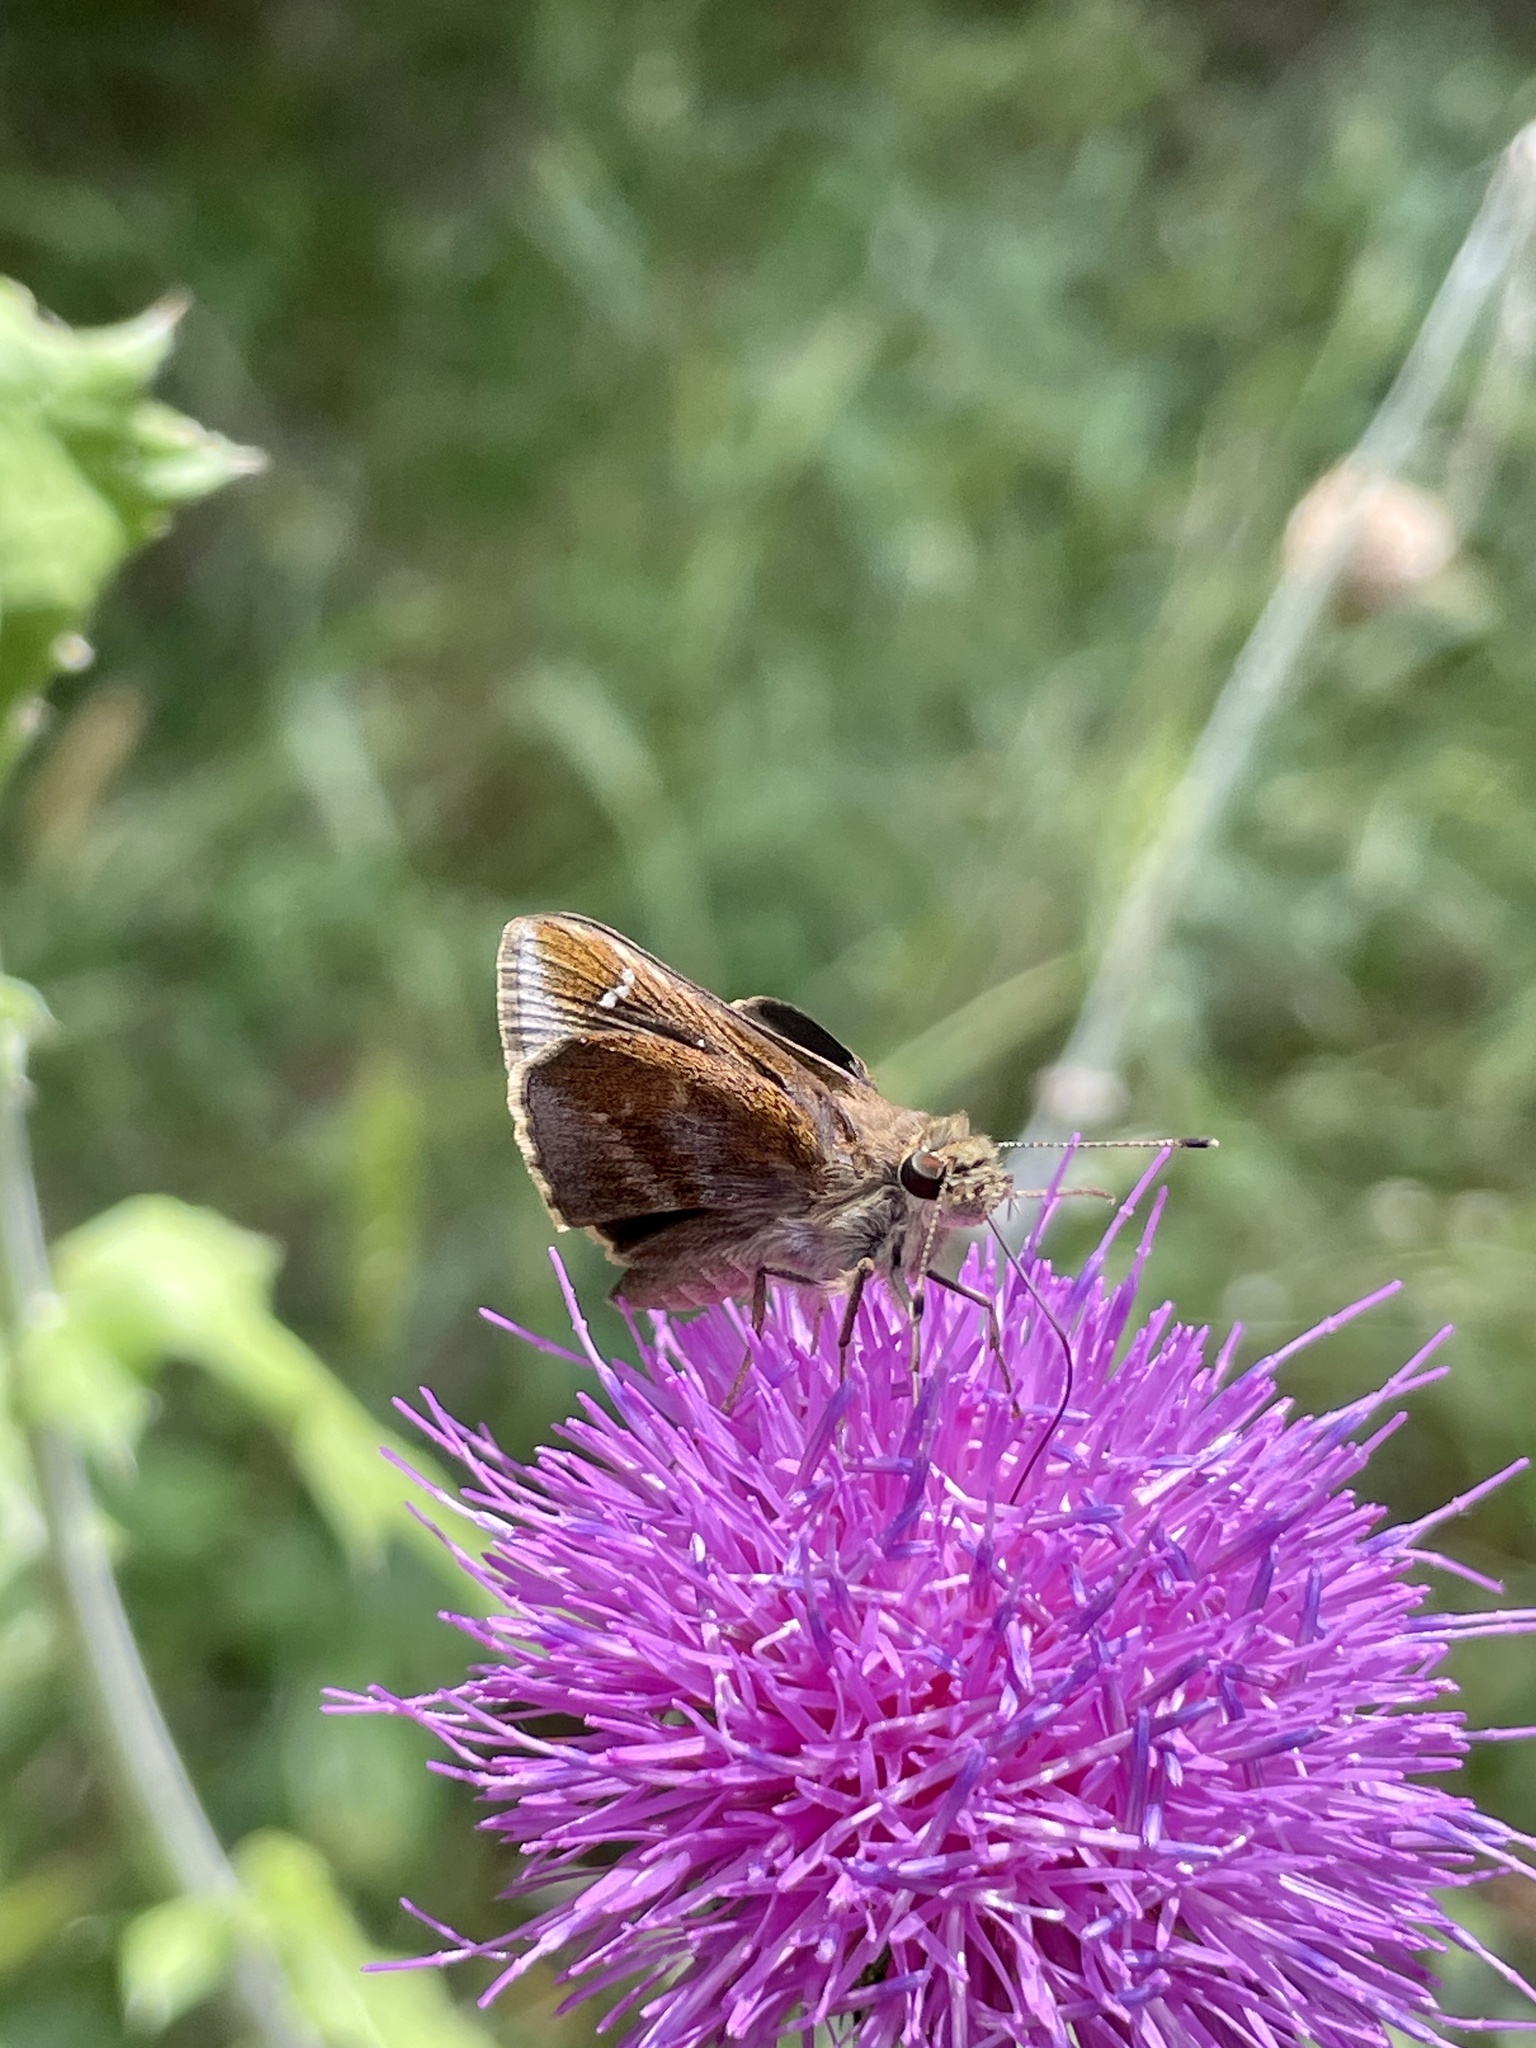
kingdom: Animalia
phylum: Arthropoda
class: Insecta
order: Lepidoptera
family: Hesperiidae
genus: Lerema
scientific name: Lerema accius
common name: Clouded skipper
